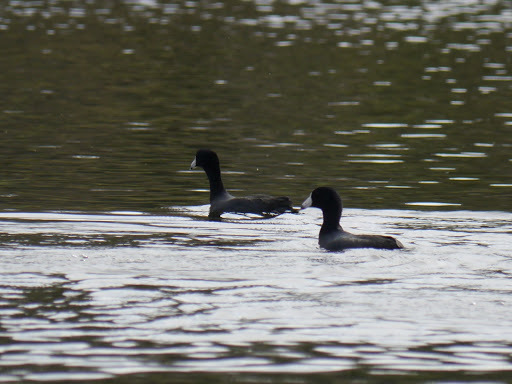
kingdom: Animalia
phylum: Chordata
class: Aves
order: Gruiformes
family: Rallidae
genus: Fulica
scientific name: Fulica americana
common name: American coot
